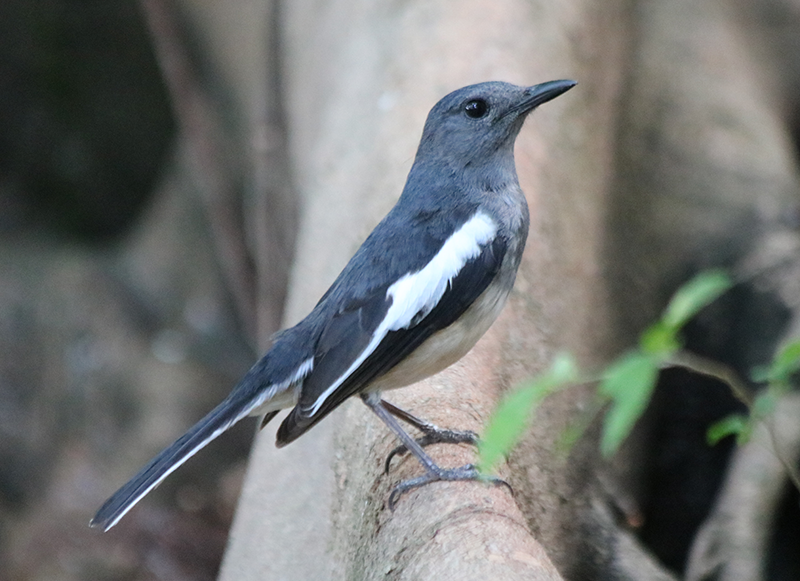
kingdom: Animalia
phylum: Chordata
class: Aves
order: Passeriformes
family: Muscicapidae
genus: Copsychus
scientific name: Copsychus saularis
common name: Oriental magpie-robin
